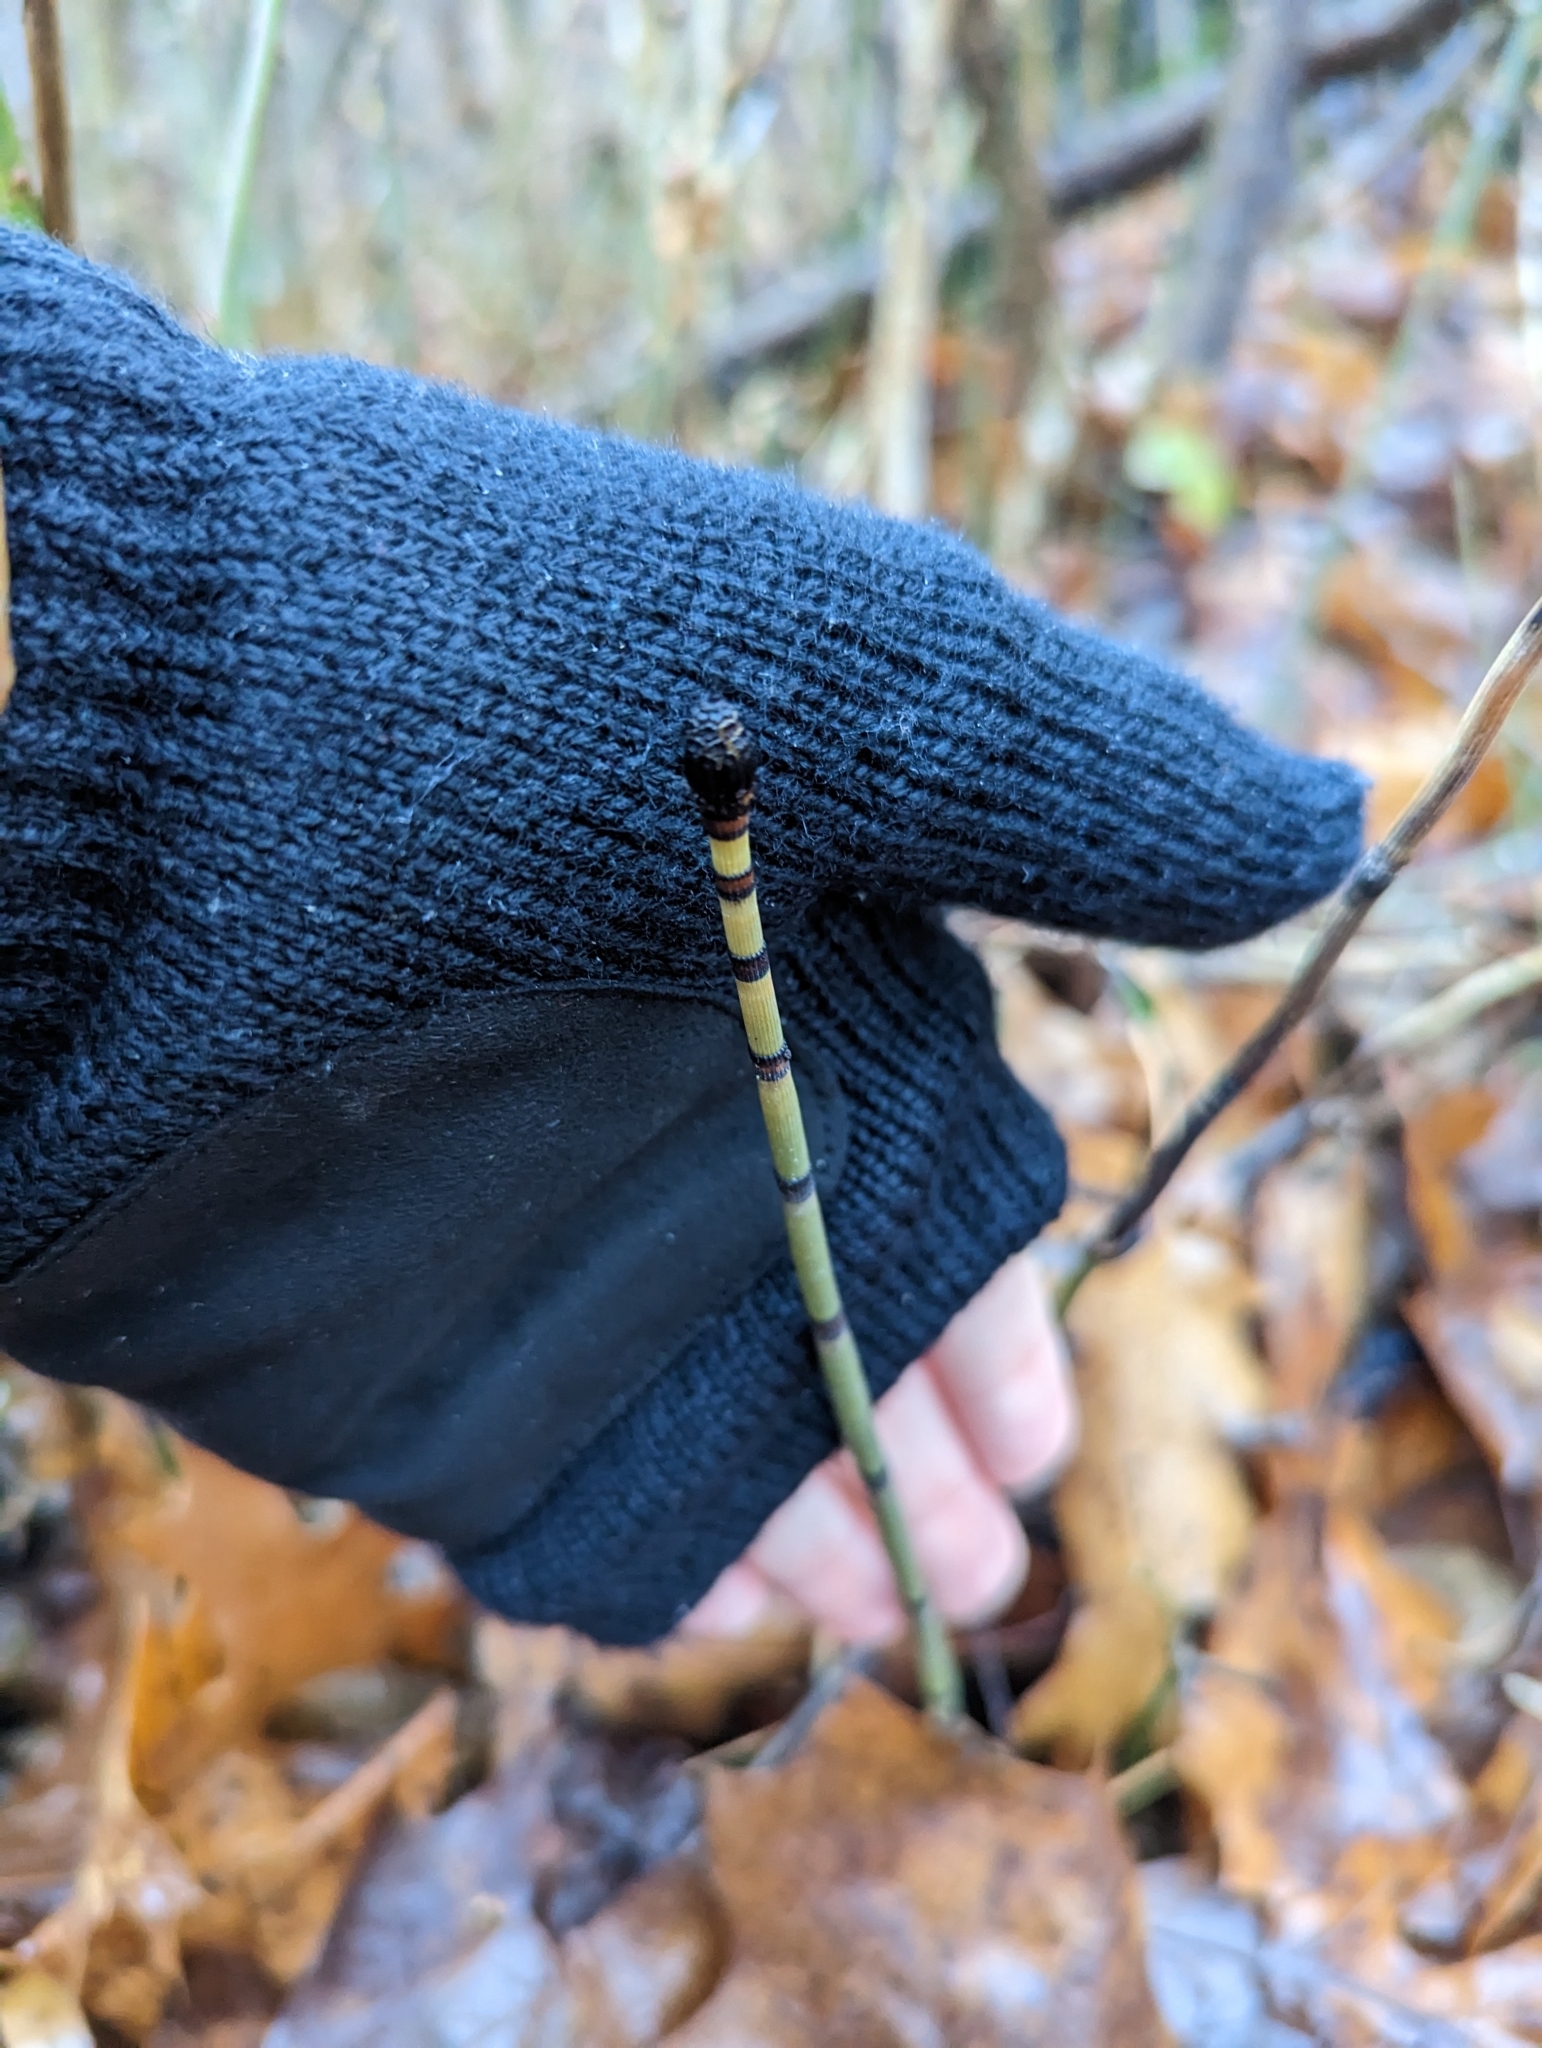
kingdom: Plantae
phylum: Tracheophyta
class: Polypodiopsida
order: Equisetales
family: Equisetaceae
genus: Equisetum
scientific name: Equisetum praealtum
